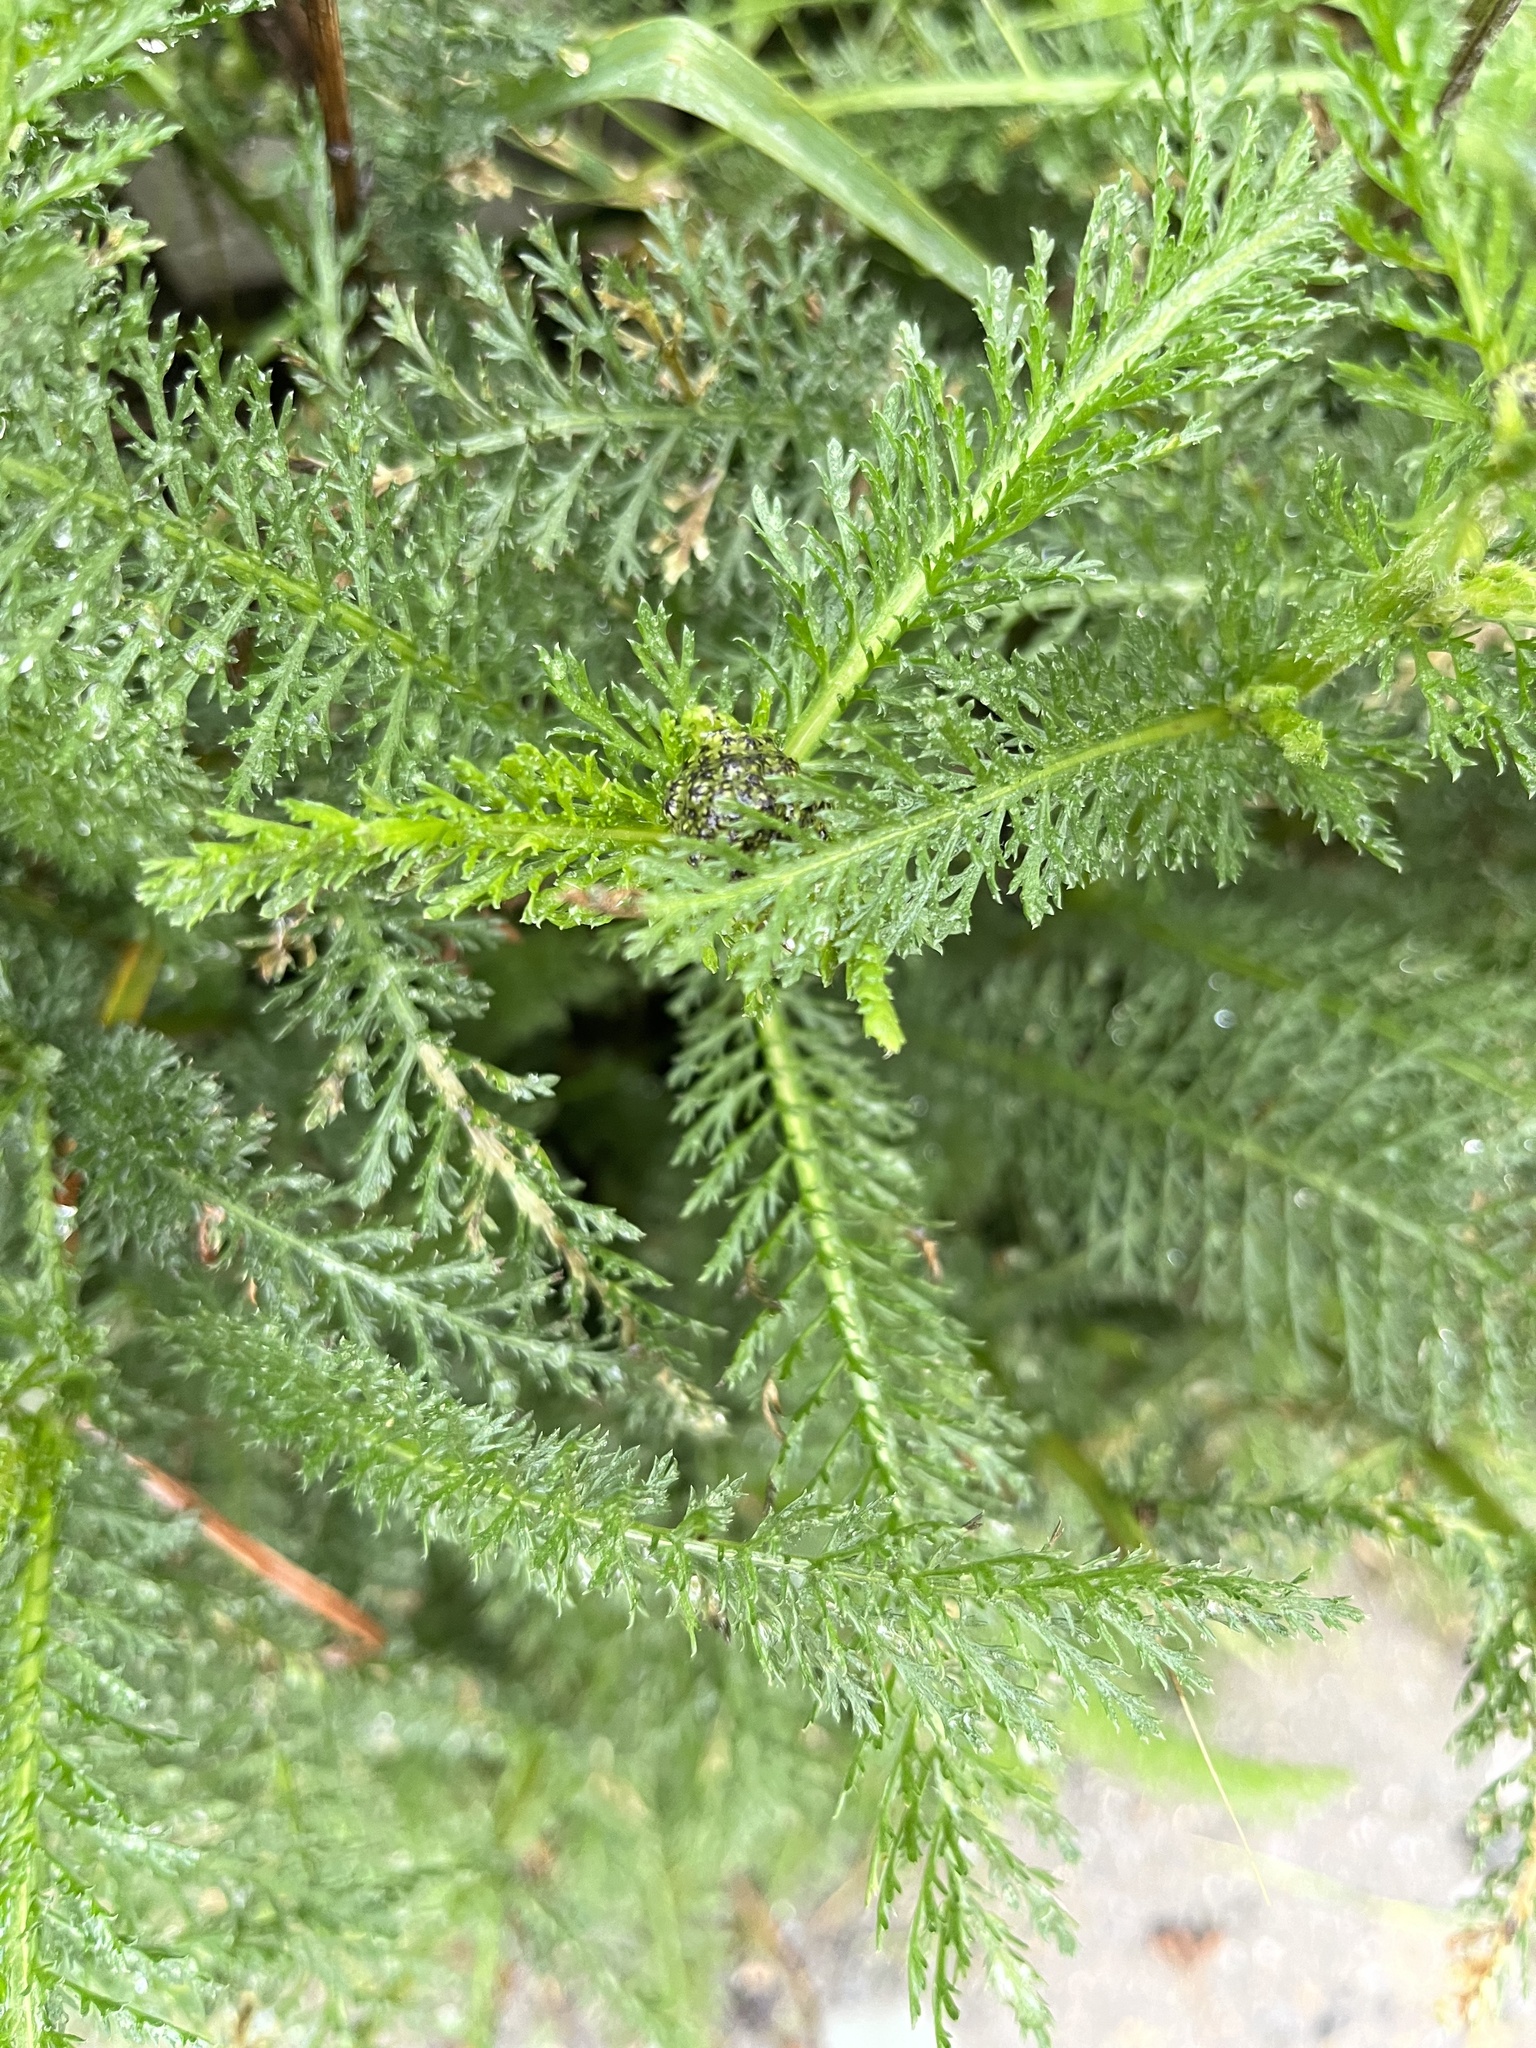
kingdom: Plantae
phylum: Tracheophyta
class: Magnoliopsida
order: Asterales
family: Asteraceae
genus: Achillea
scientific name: Achillea millefolium
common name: Yarrow
